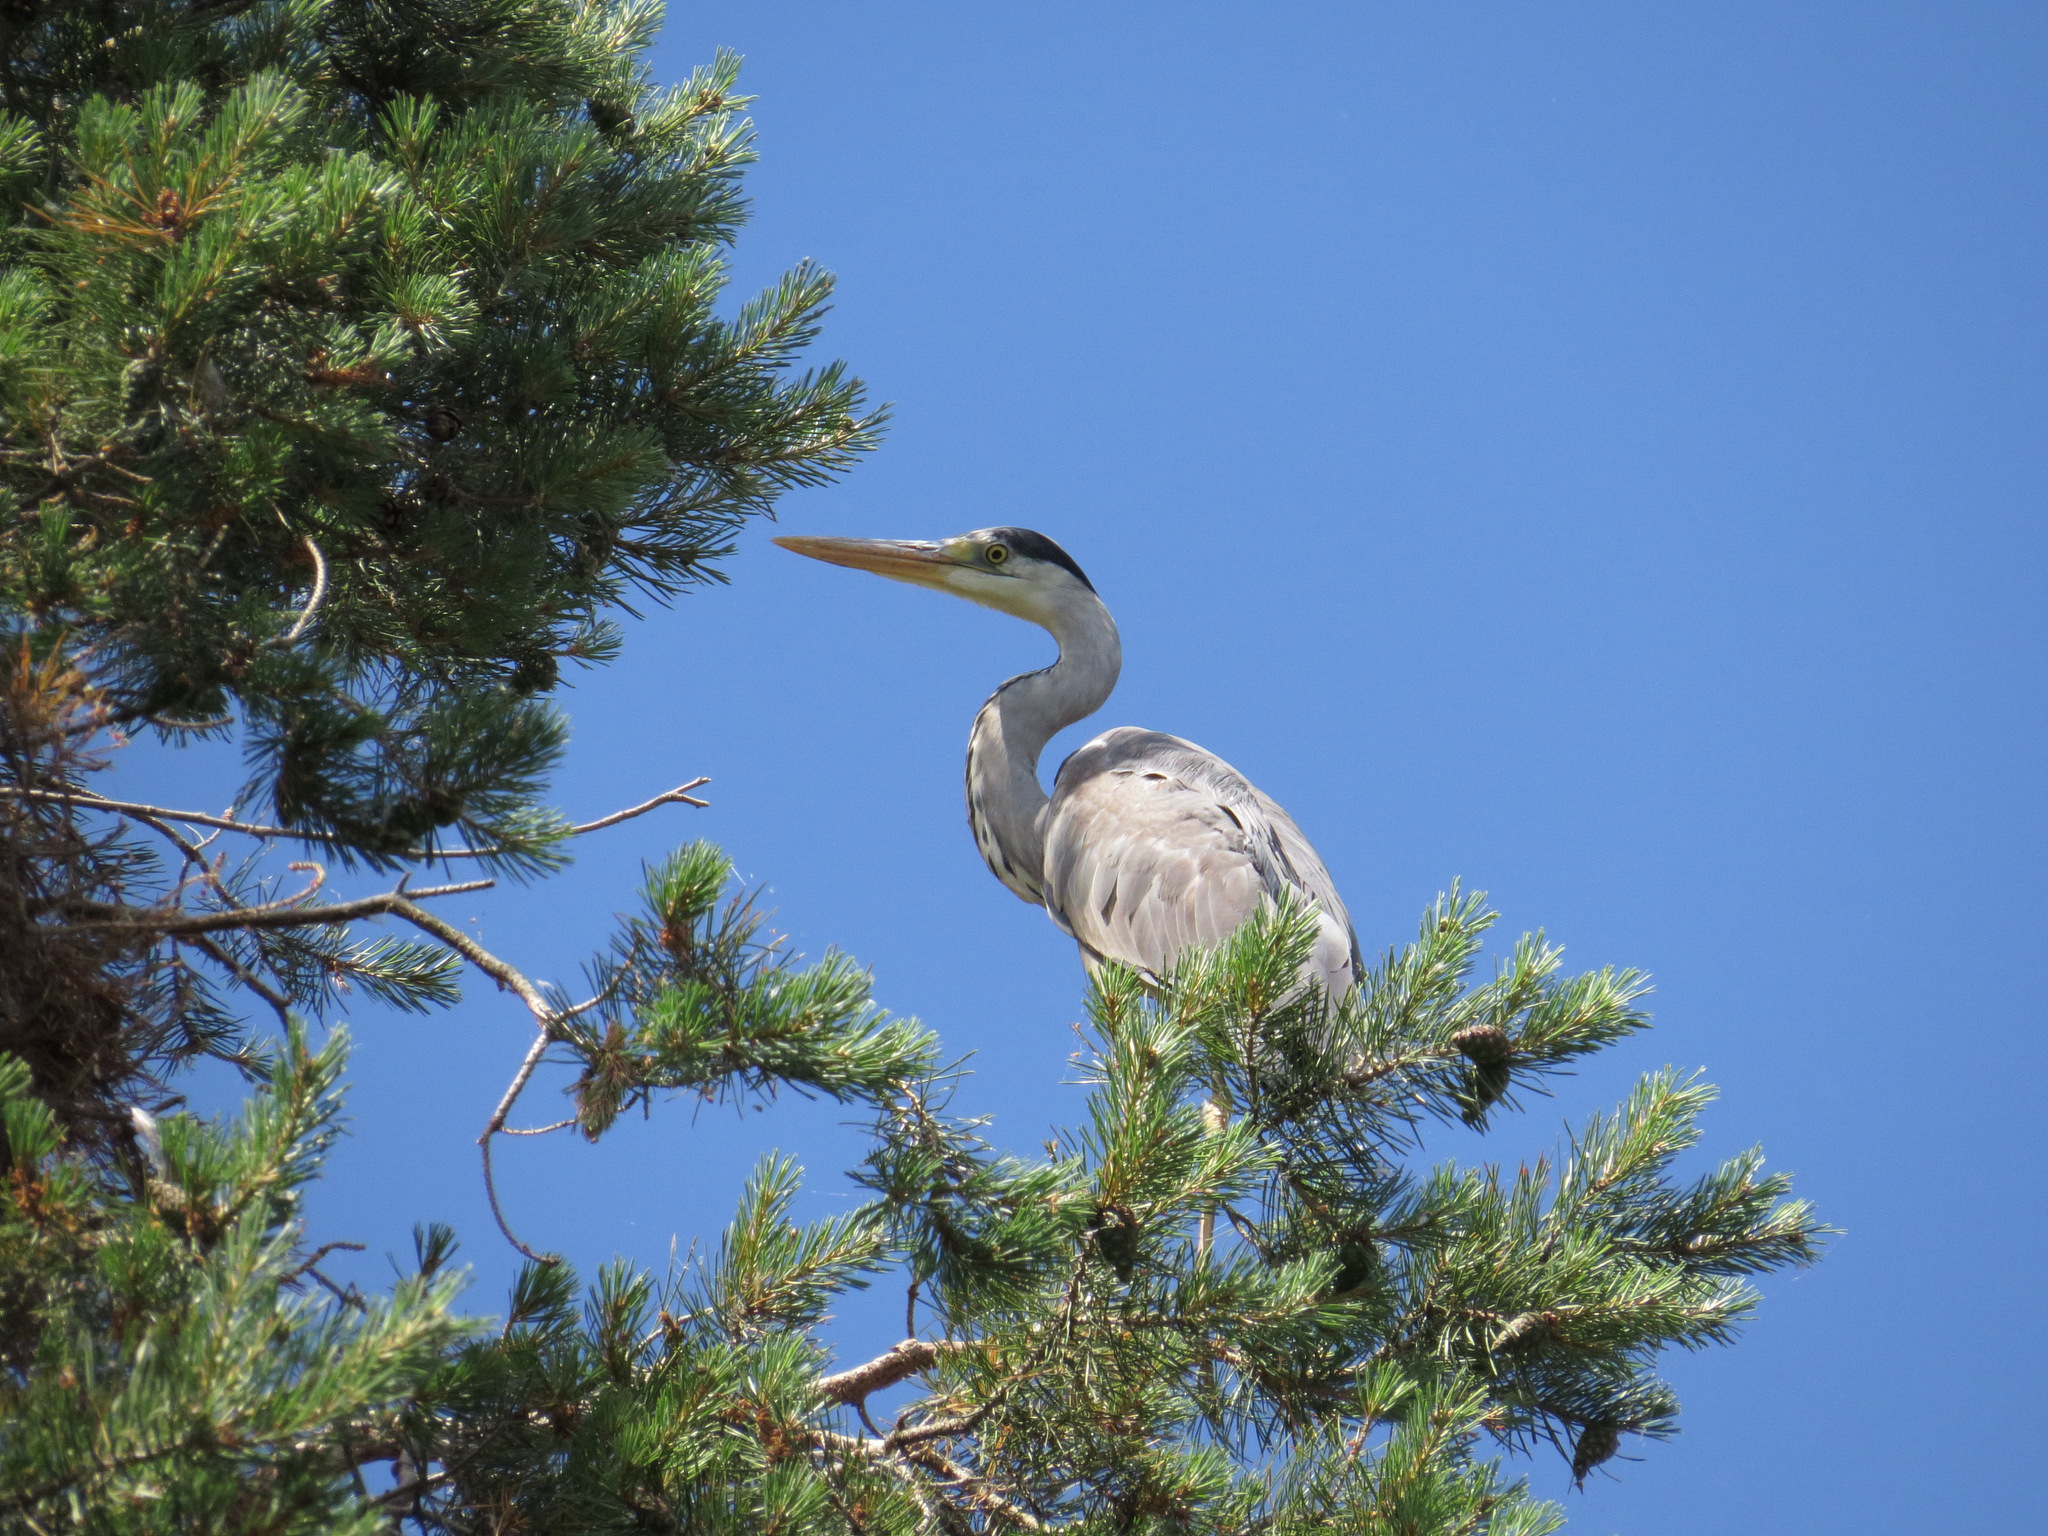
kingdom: Animalia
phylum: Chordata
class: Aves
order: Pelecaniformes
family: Ardeidae
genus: Ardea
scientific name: Ardea cinerea
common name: Grey heron
